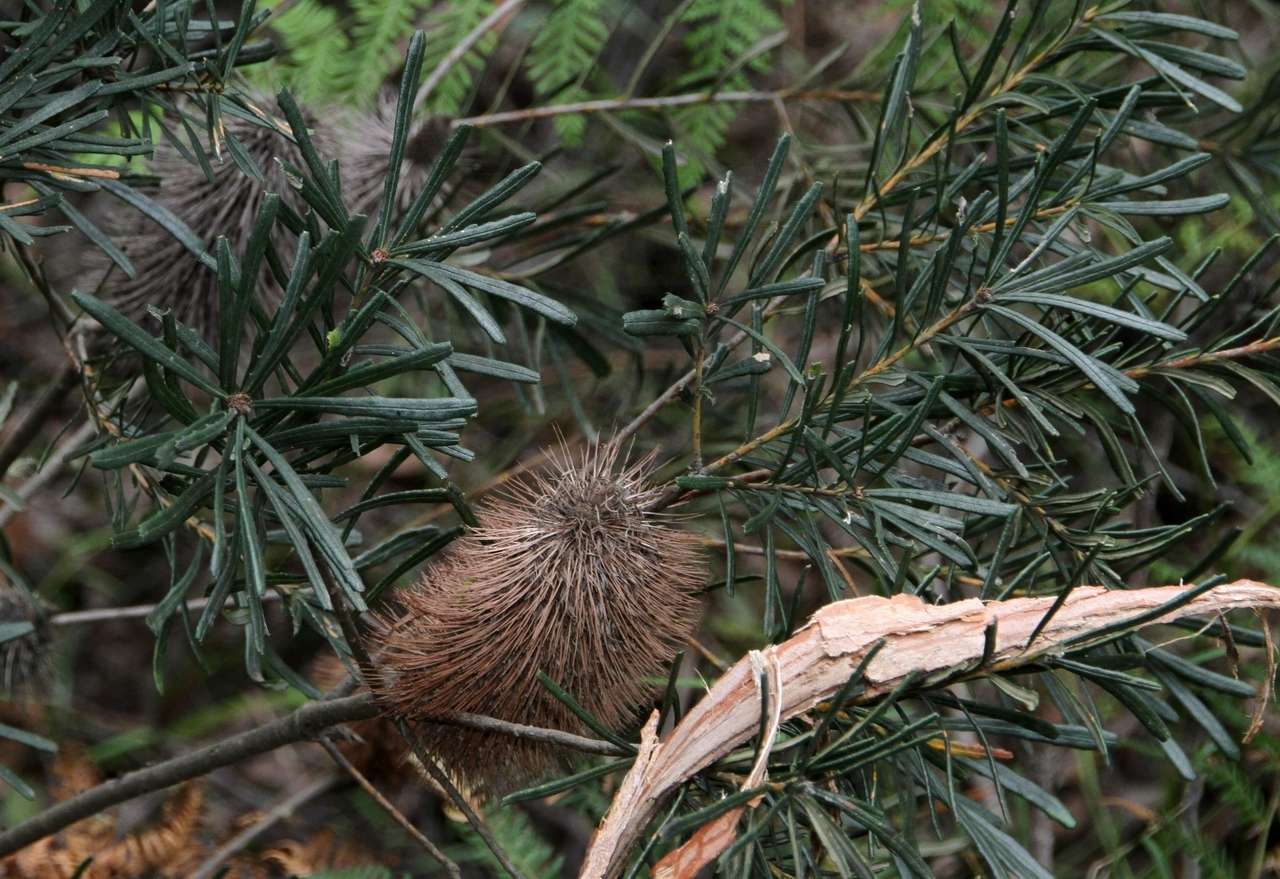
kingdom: Plantae
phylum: Tracheophyta
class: Magnoliopsida
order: Proteales
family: Proteaceae
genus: Banksia
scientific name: Banksia marginata
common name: Silver banksia
